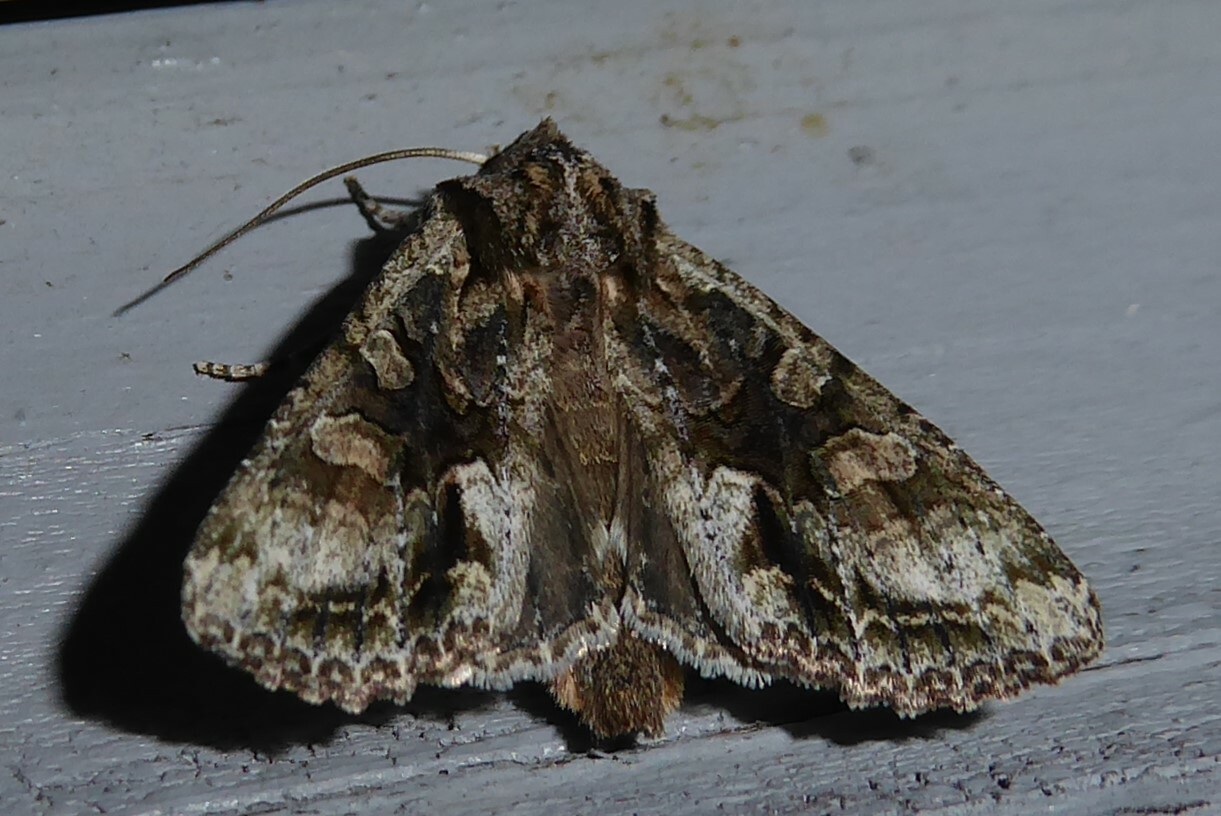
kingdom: Animalia
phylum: Arthropoda
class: Insecta
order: Lepidoptera
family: Noctuidae
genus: Ichneutica
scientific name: Ichneutica mutans
